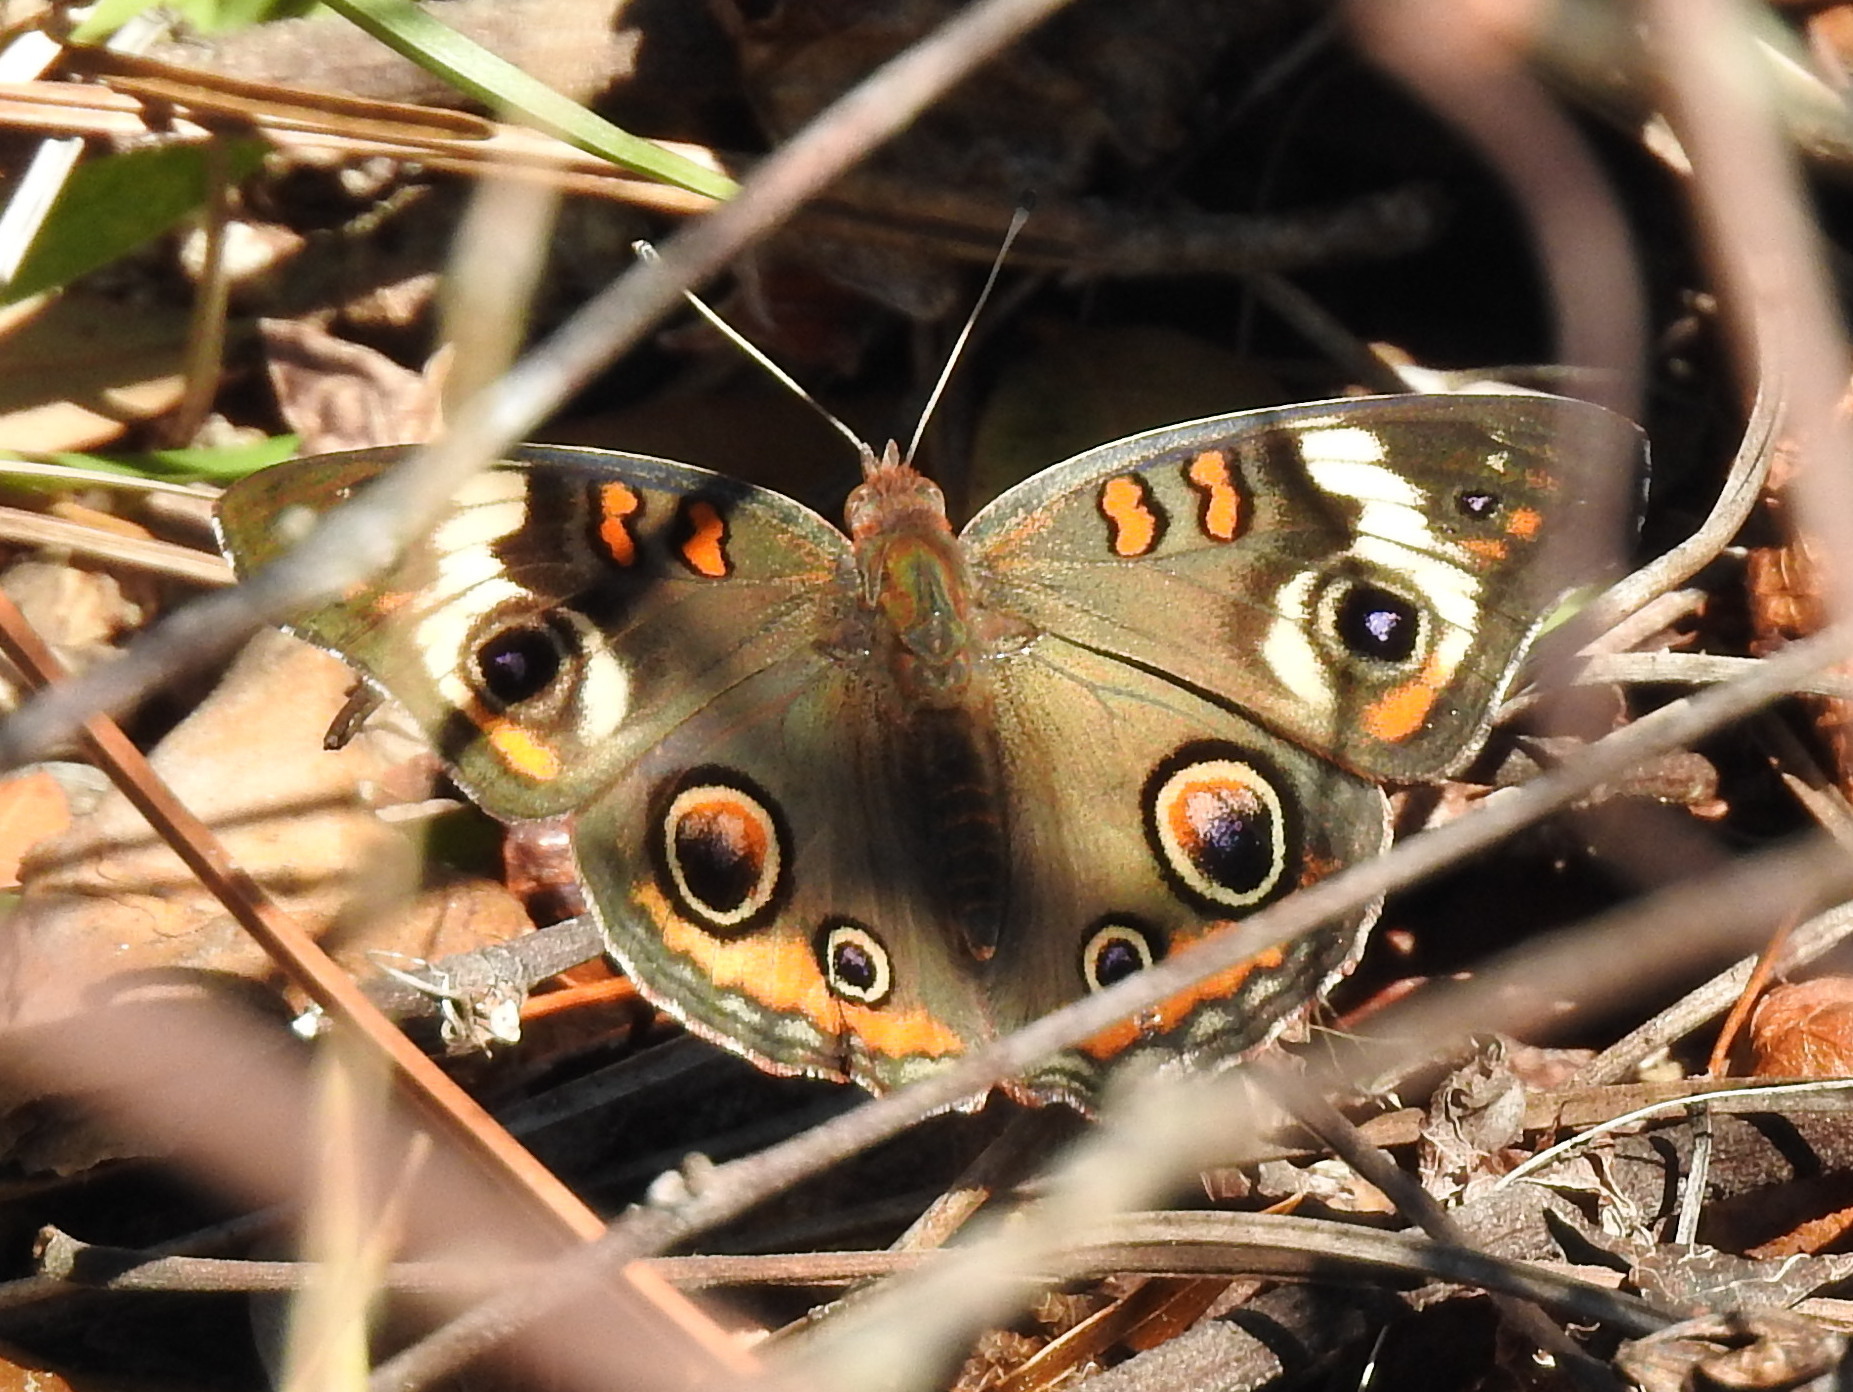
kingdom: Animalia
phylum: Arthropoda
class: Insecta
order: Lepidoptera
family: Nymphalidae
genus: Junonia
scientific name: Junonia coenia
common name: Common buckeye
